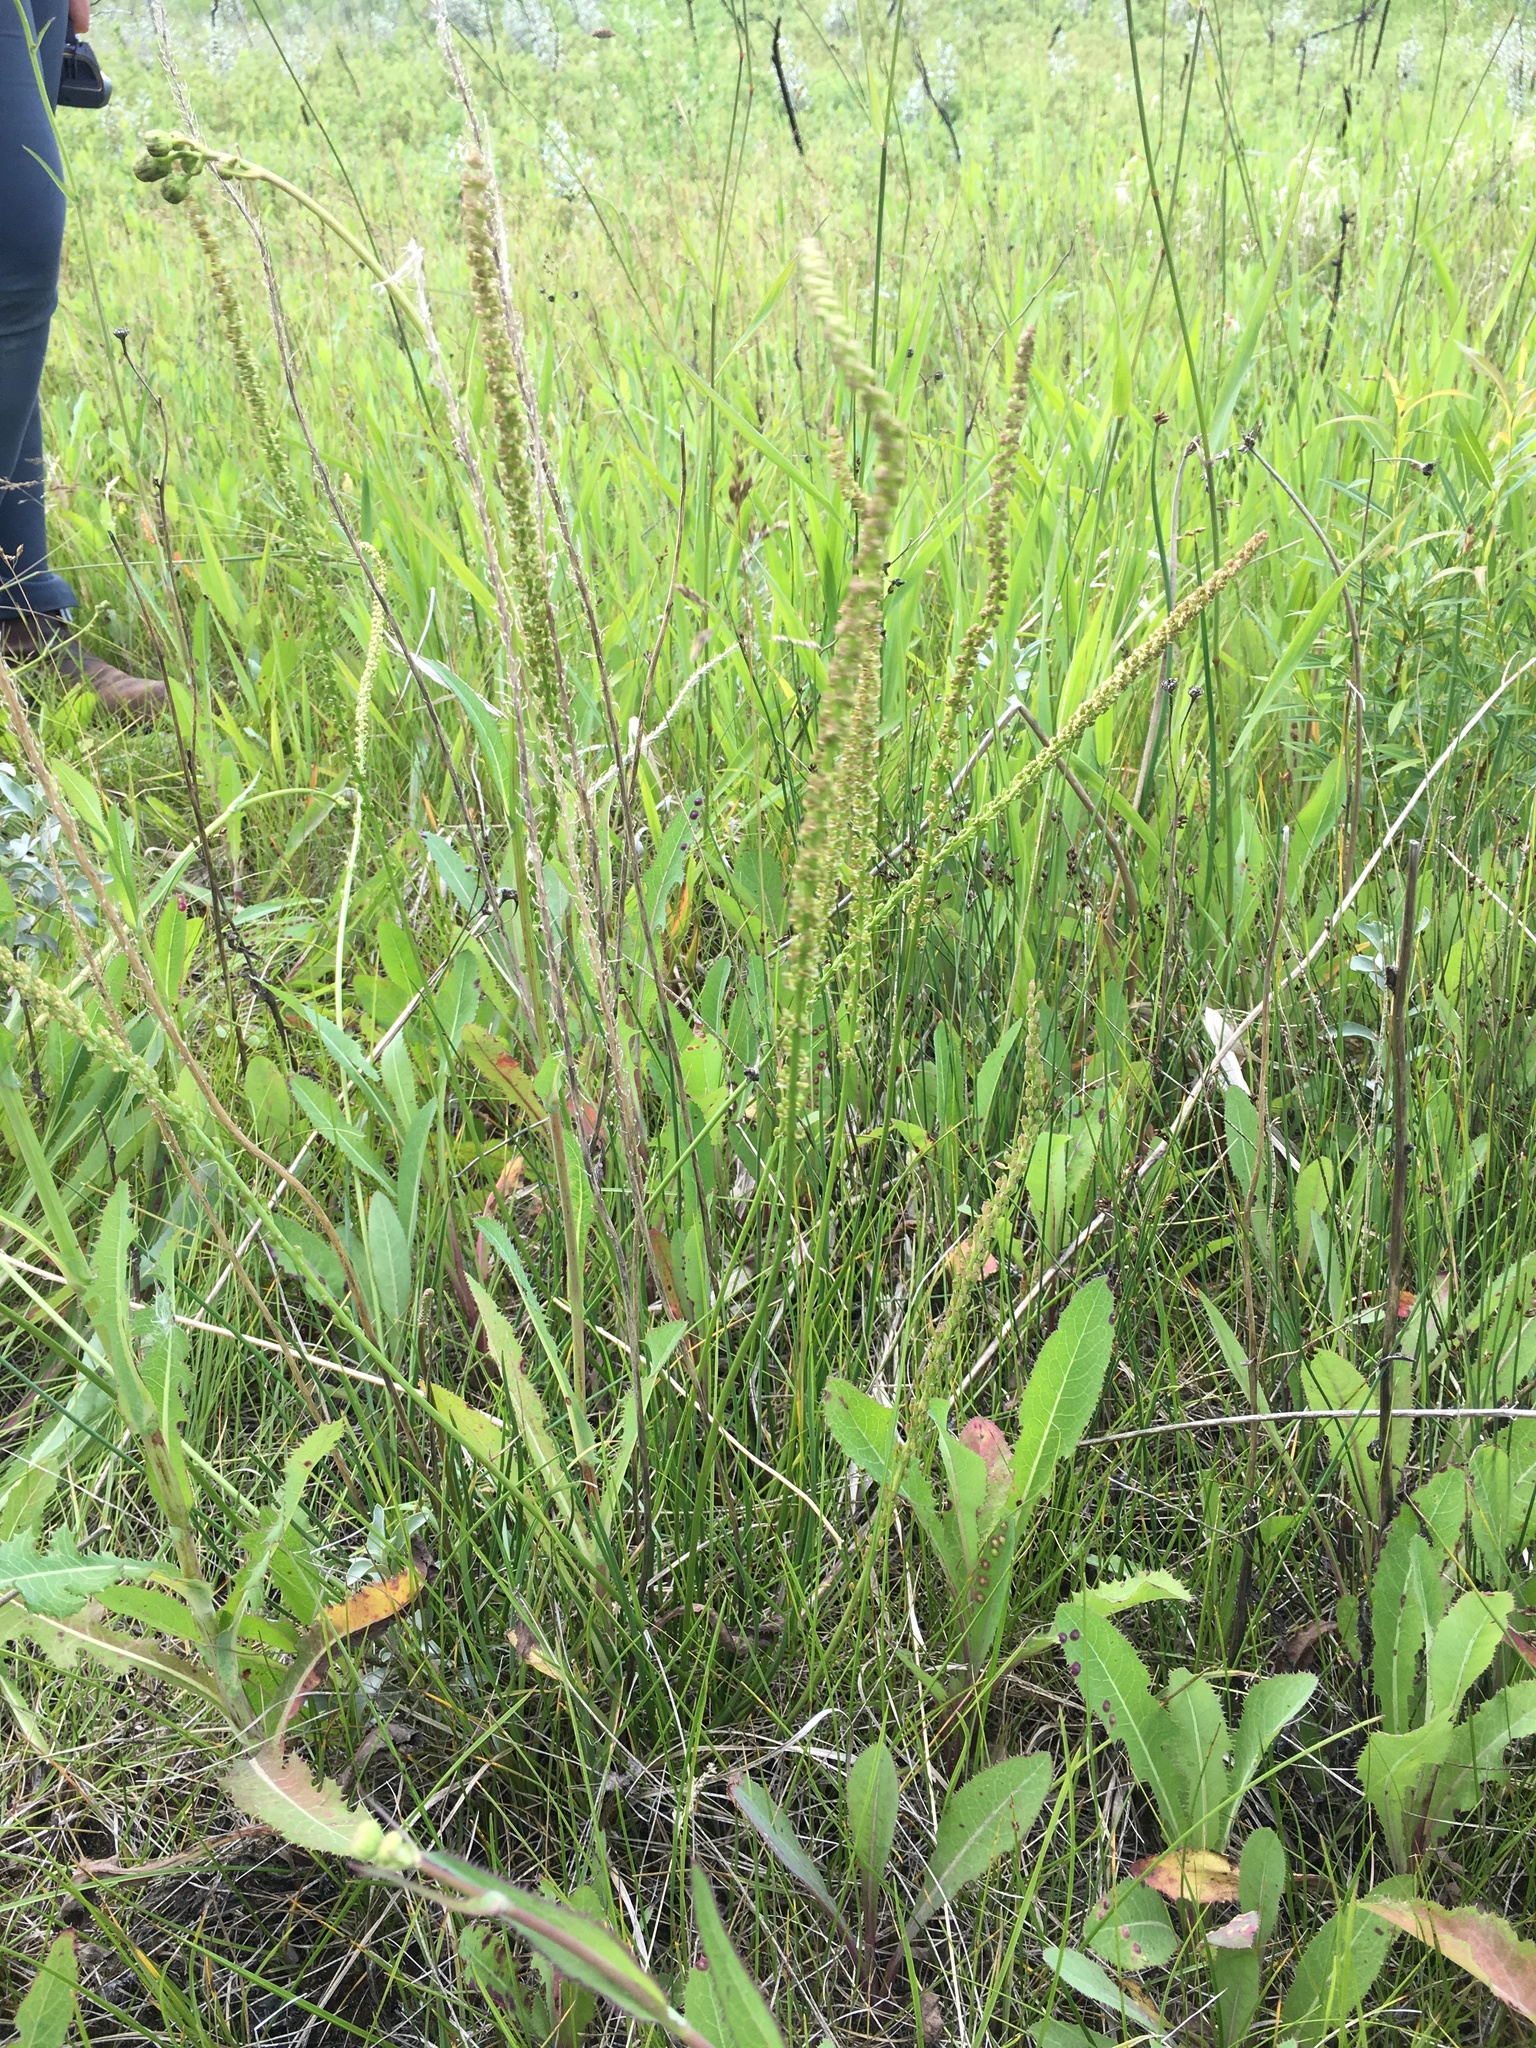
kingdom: Plantae
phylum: Tracheophyta
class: Liliopsida
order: Alismatales
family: Juncaginaceae
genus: Triglochin
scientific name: Triglochin maritima
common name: Sea arrowgrass
